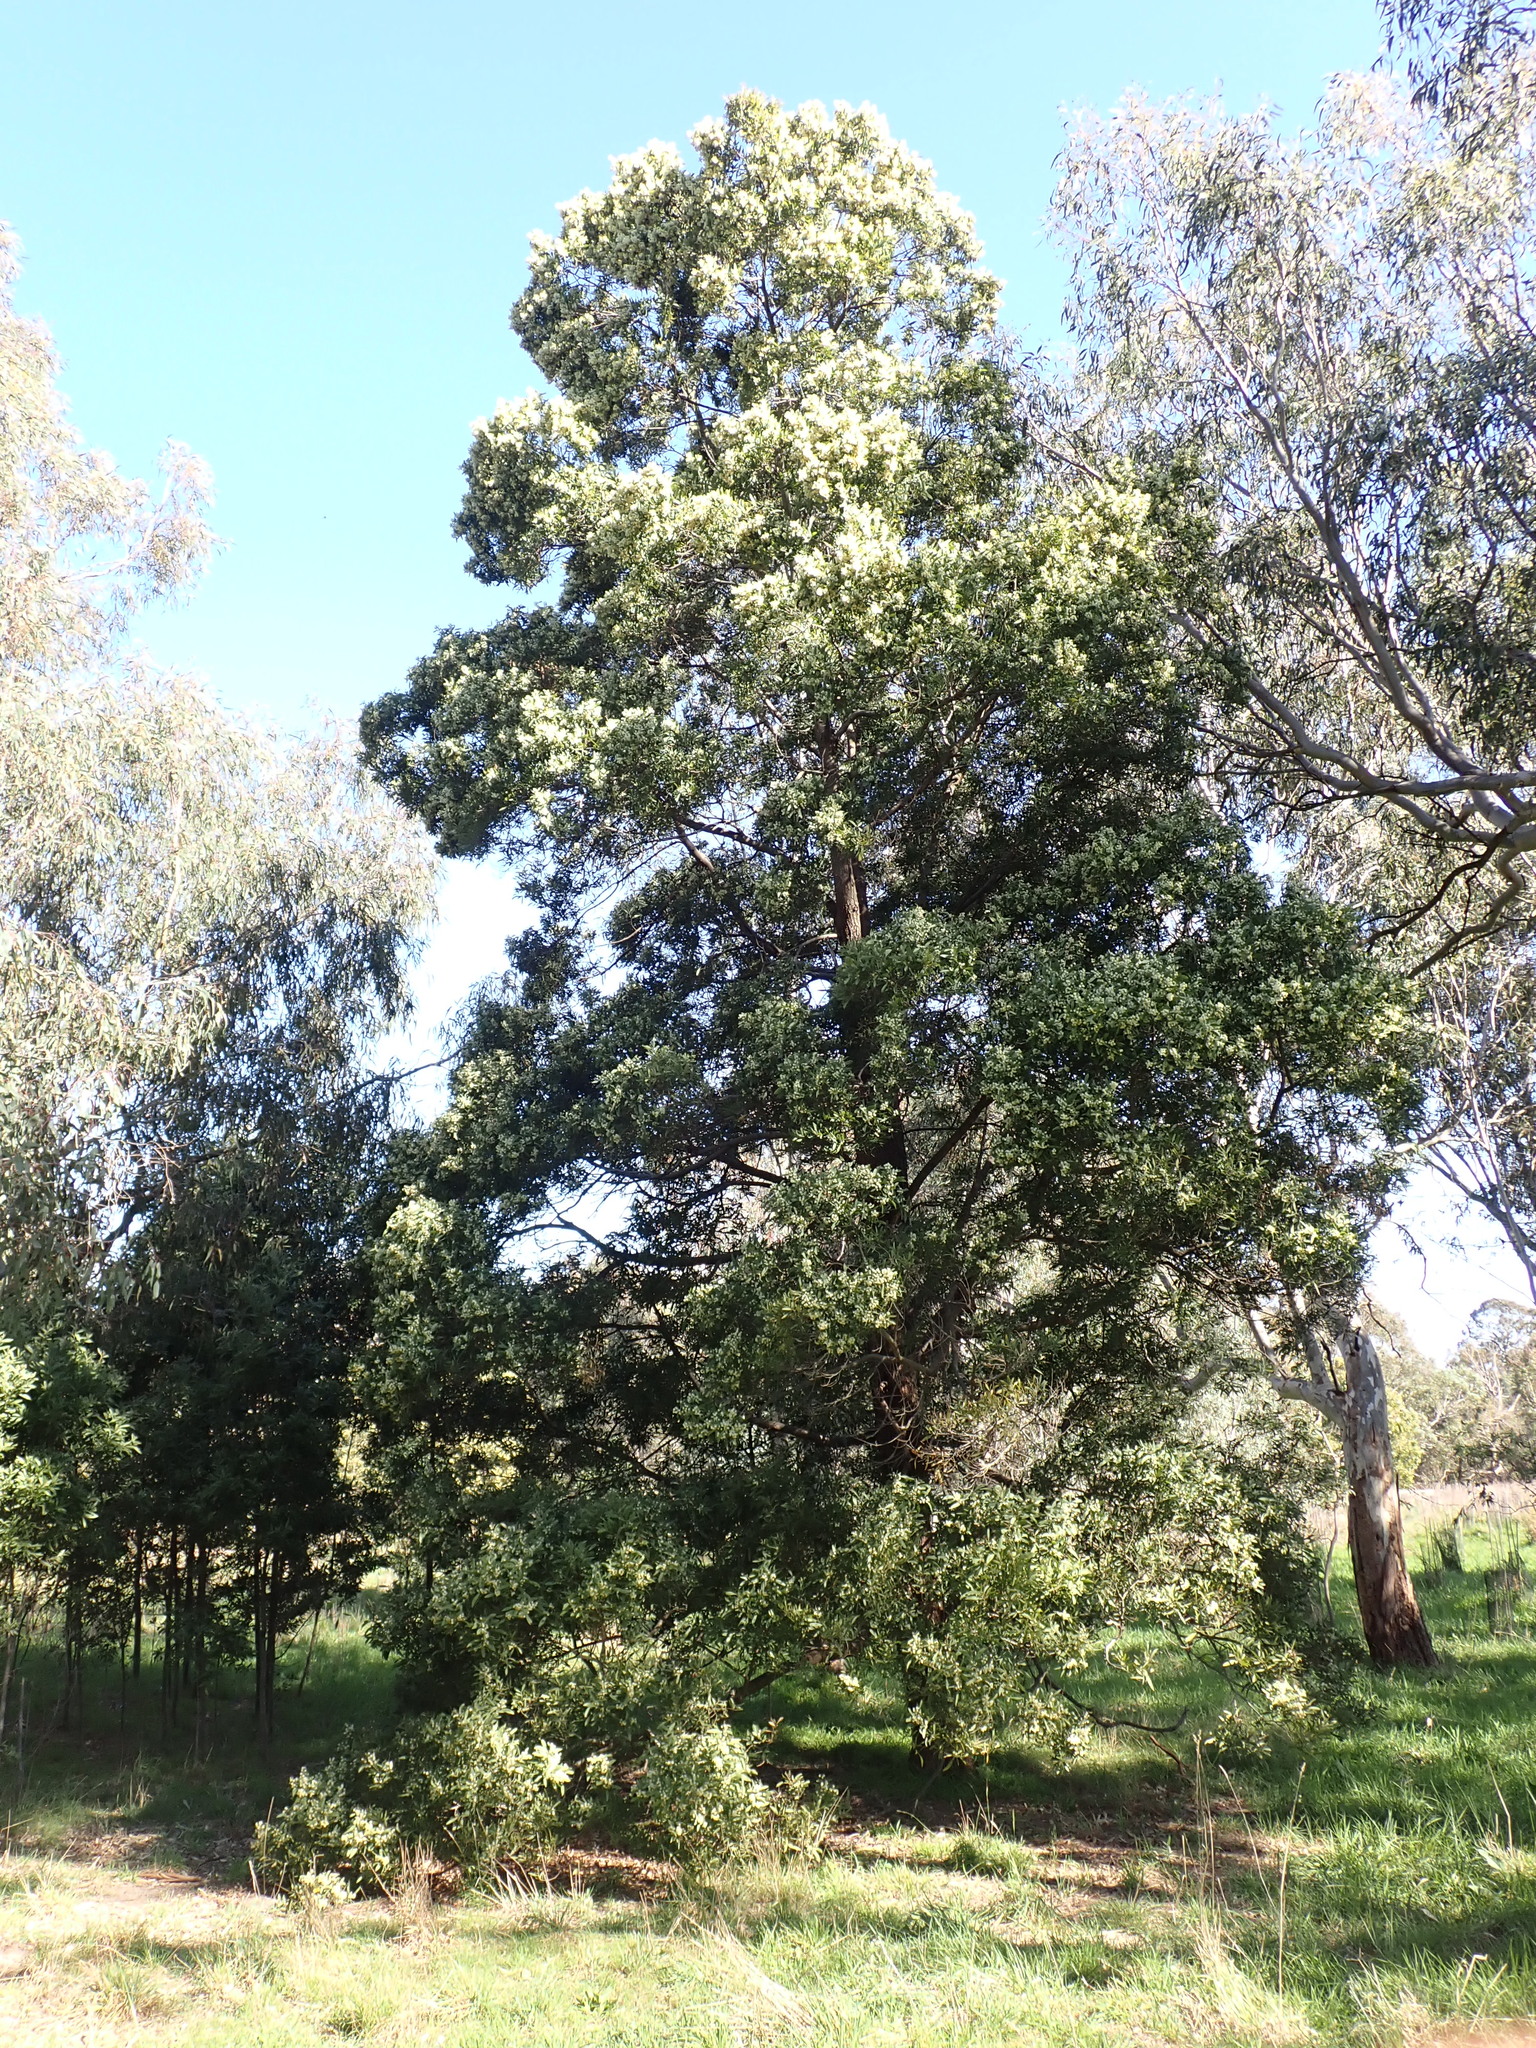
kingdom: Plantae
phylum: Tracheophyta
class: Magnoliopsida
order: Fabales
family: Fabaceae
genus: Acacia
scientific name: Acacia melanoxylon
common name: Blackwood
